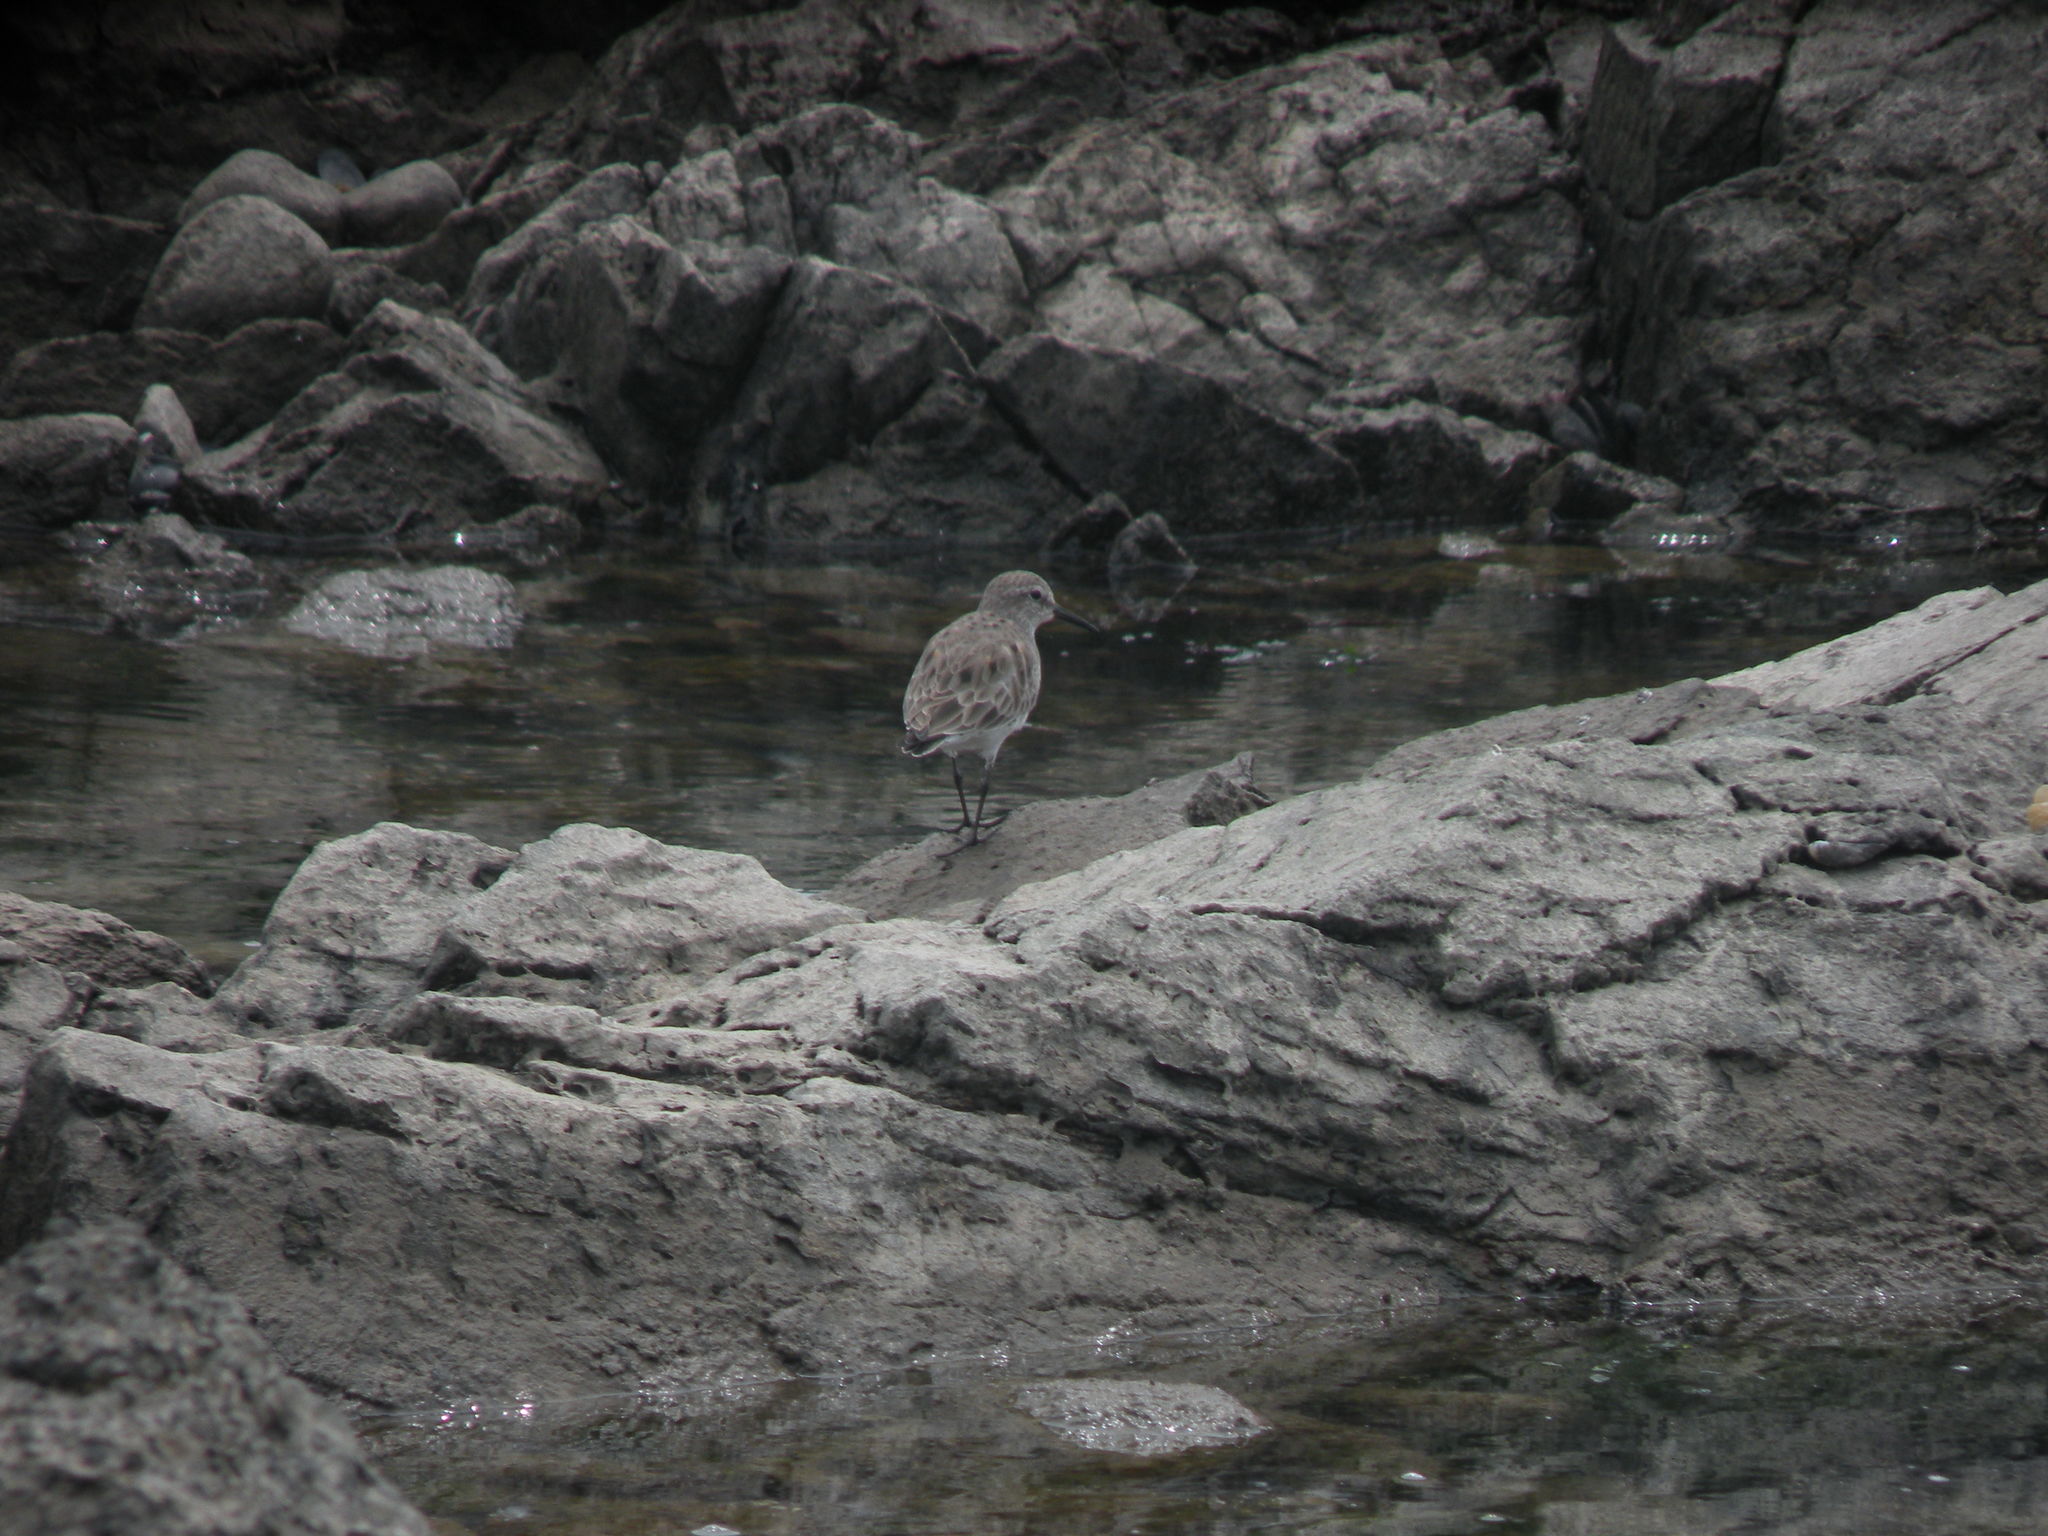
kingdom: Animalia
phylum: Chordata
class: Aves
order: Charadriiformes
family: Scolopacidae
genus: Calidris
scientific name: Calidris fuscicollis
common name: White-rumped sandpiper
